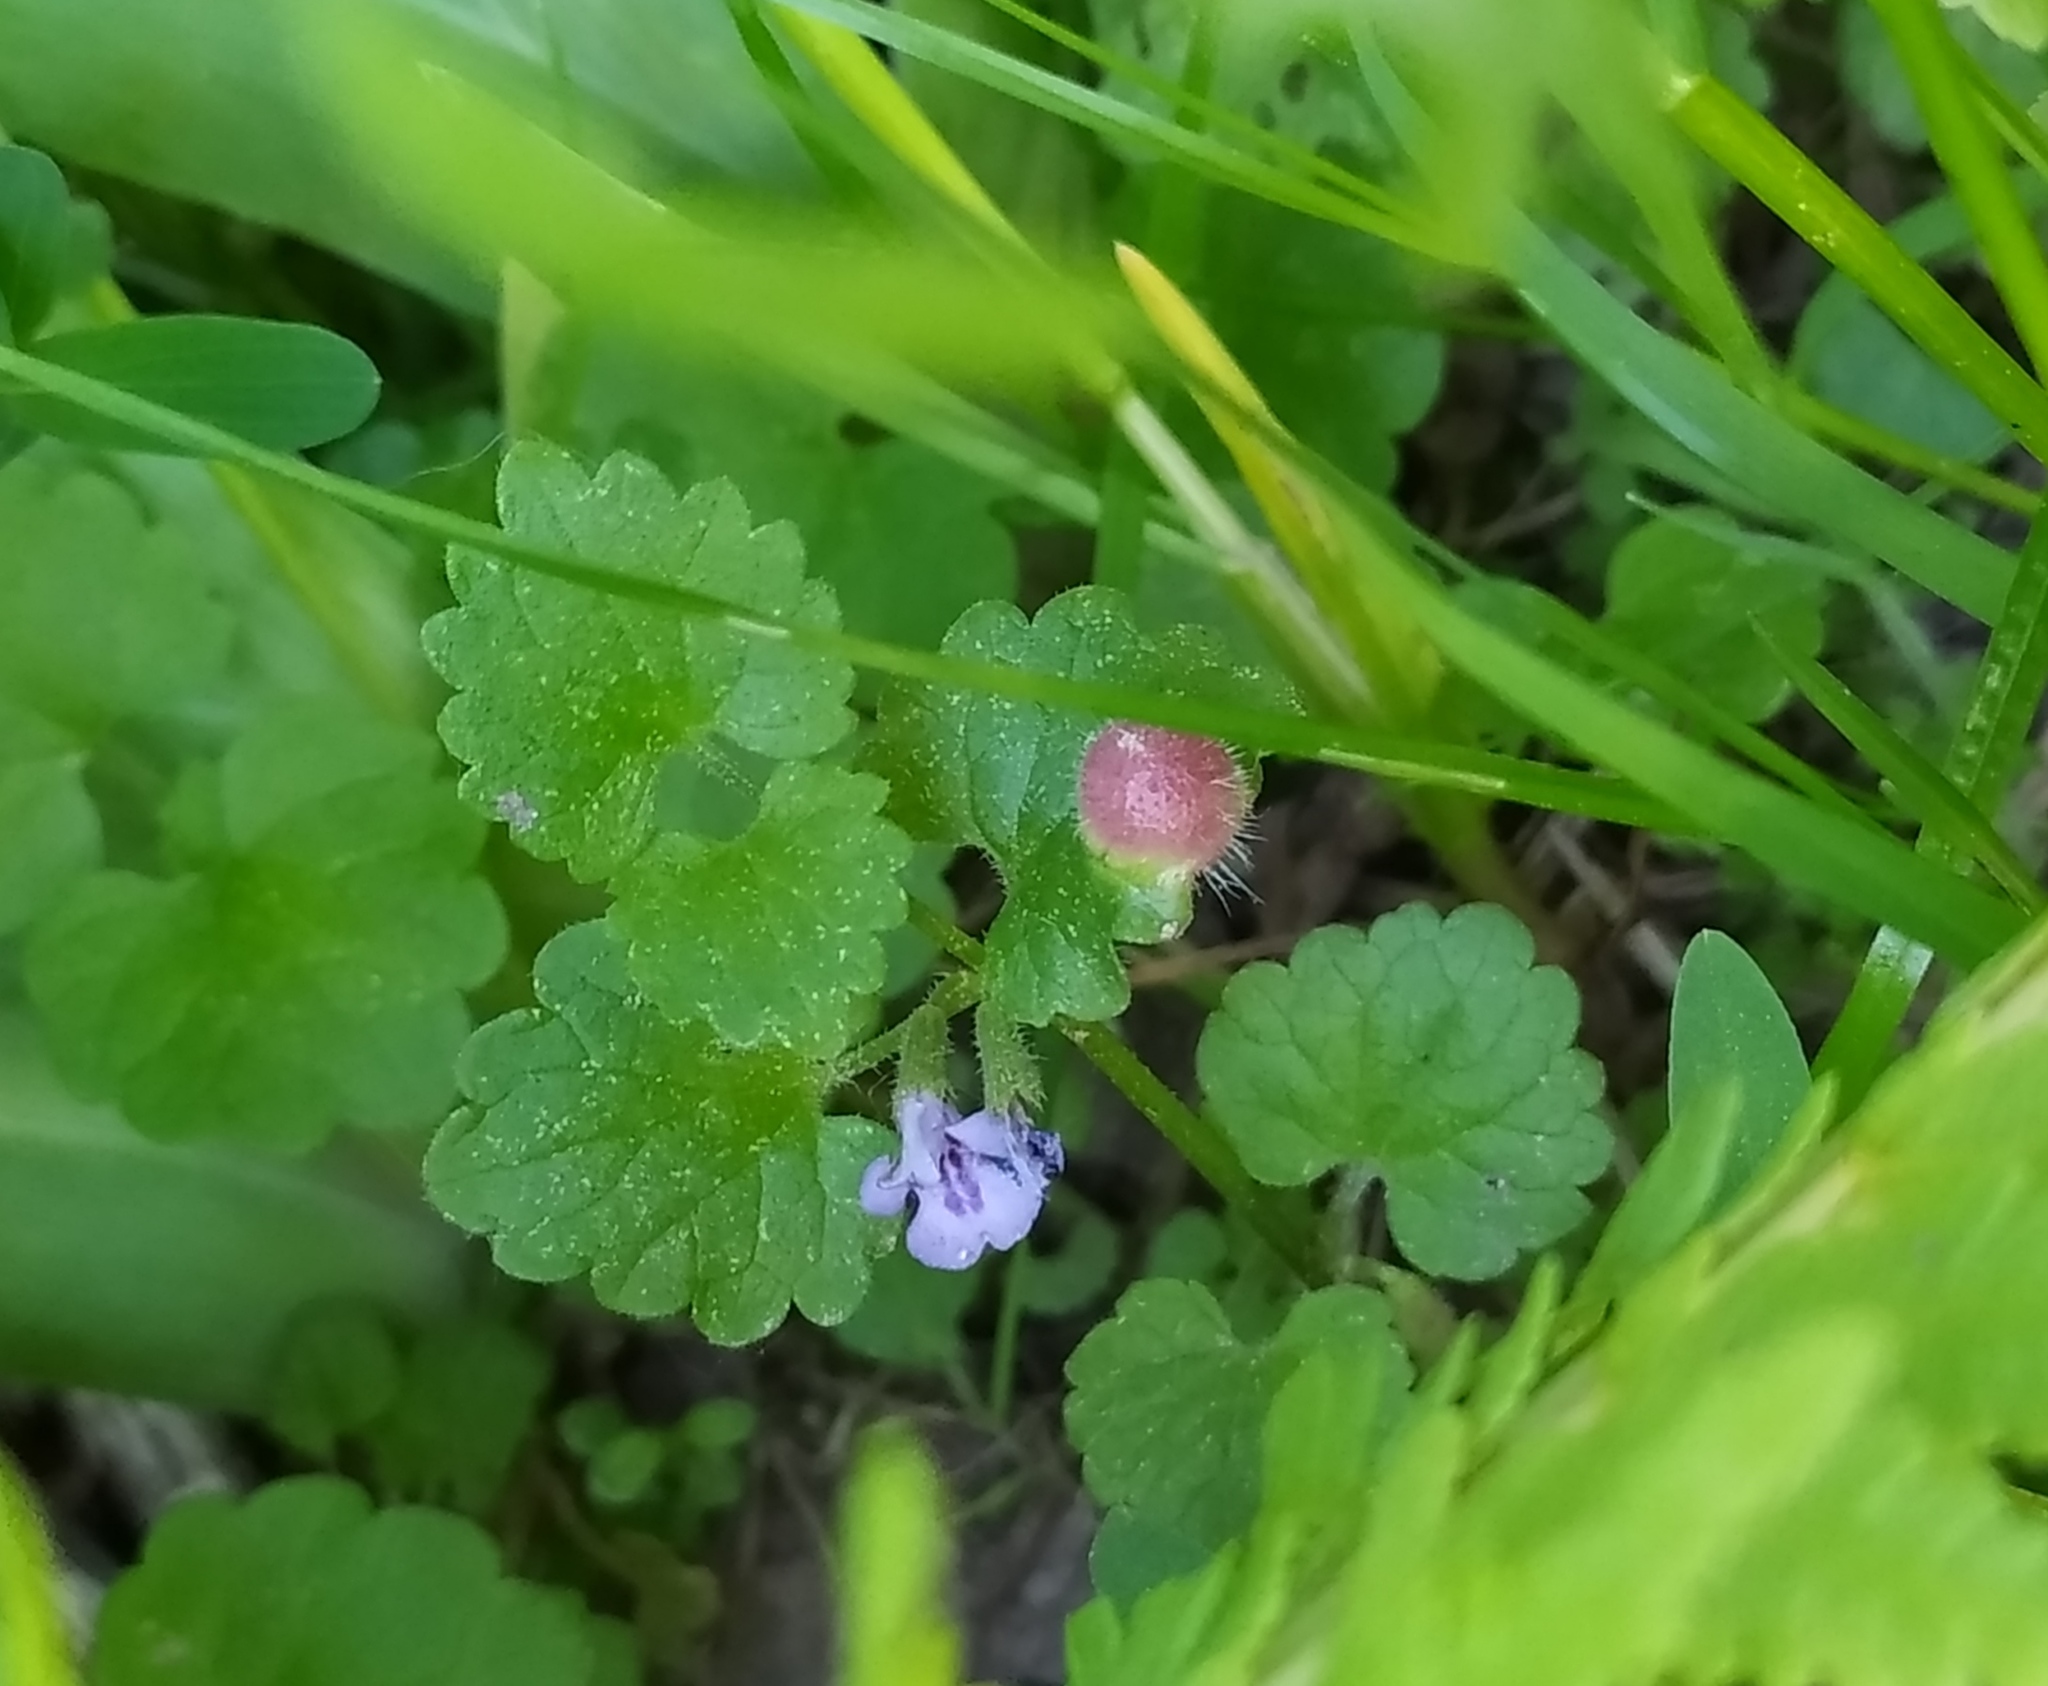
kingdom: Animalia
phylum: Arthropoda
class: Insecta
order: Hymenoptera
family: Cynipidae
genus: Liposthenes
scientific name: Liposthenes glechomae
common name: Gall wasp
